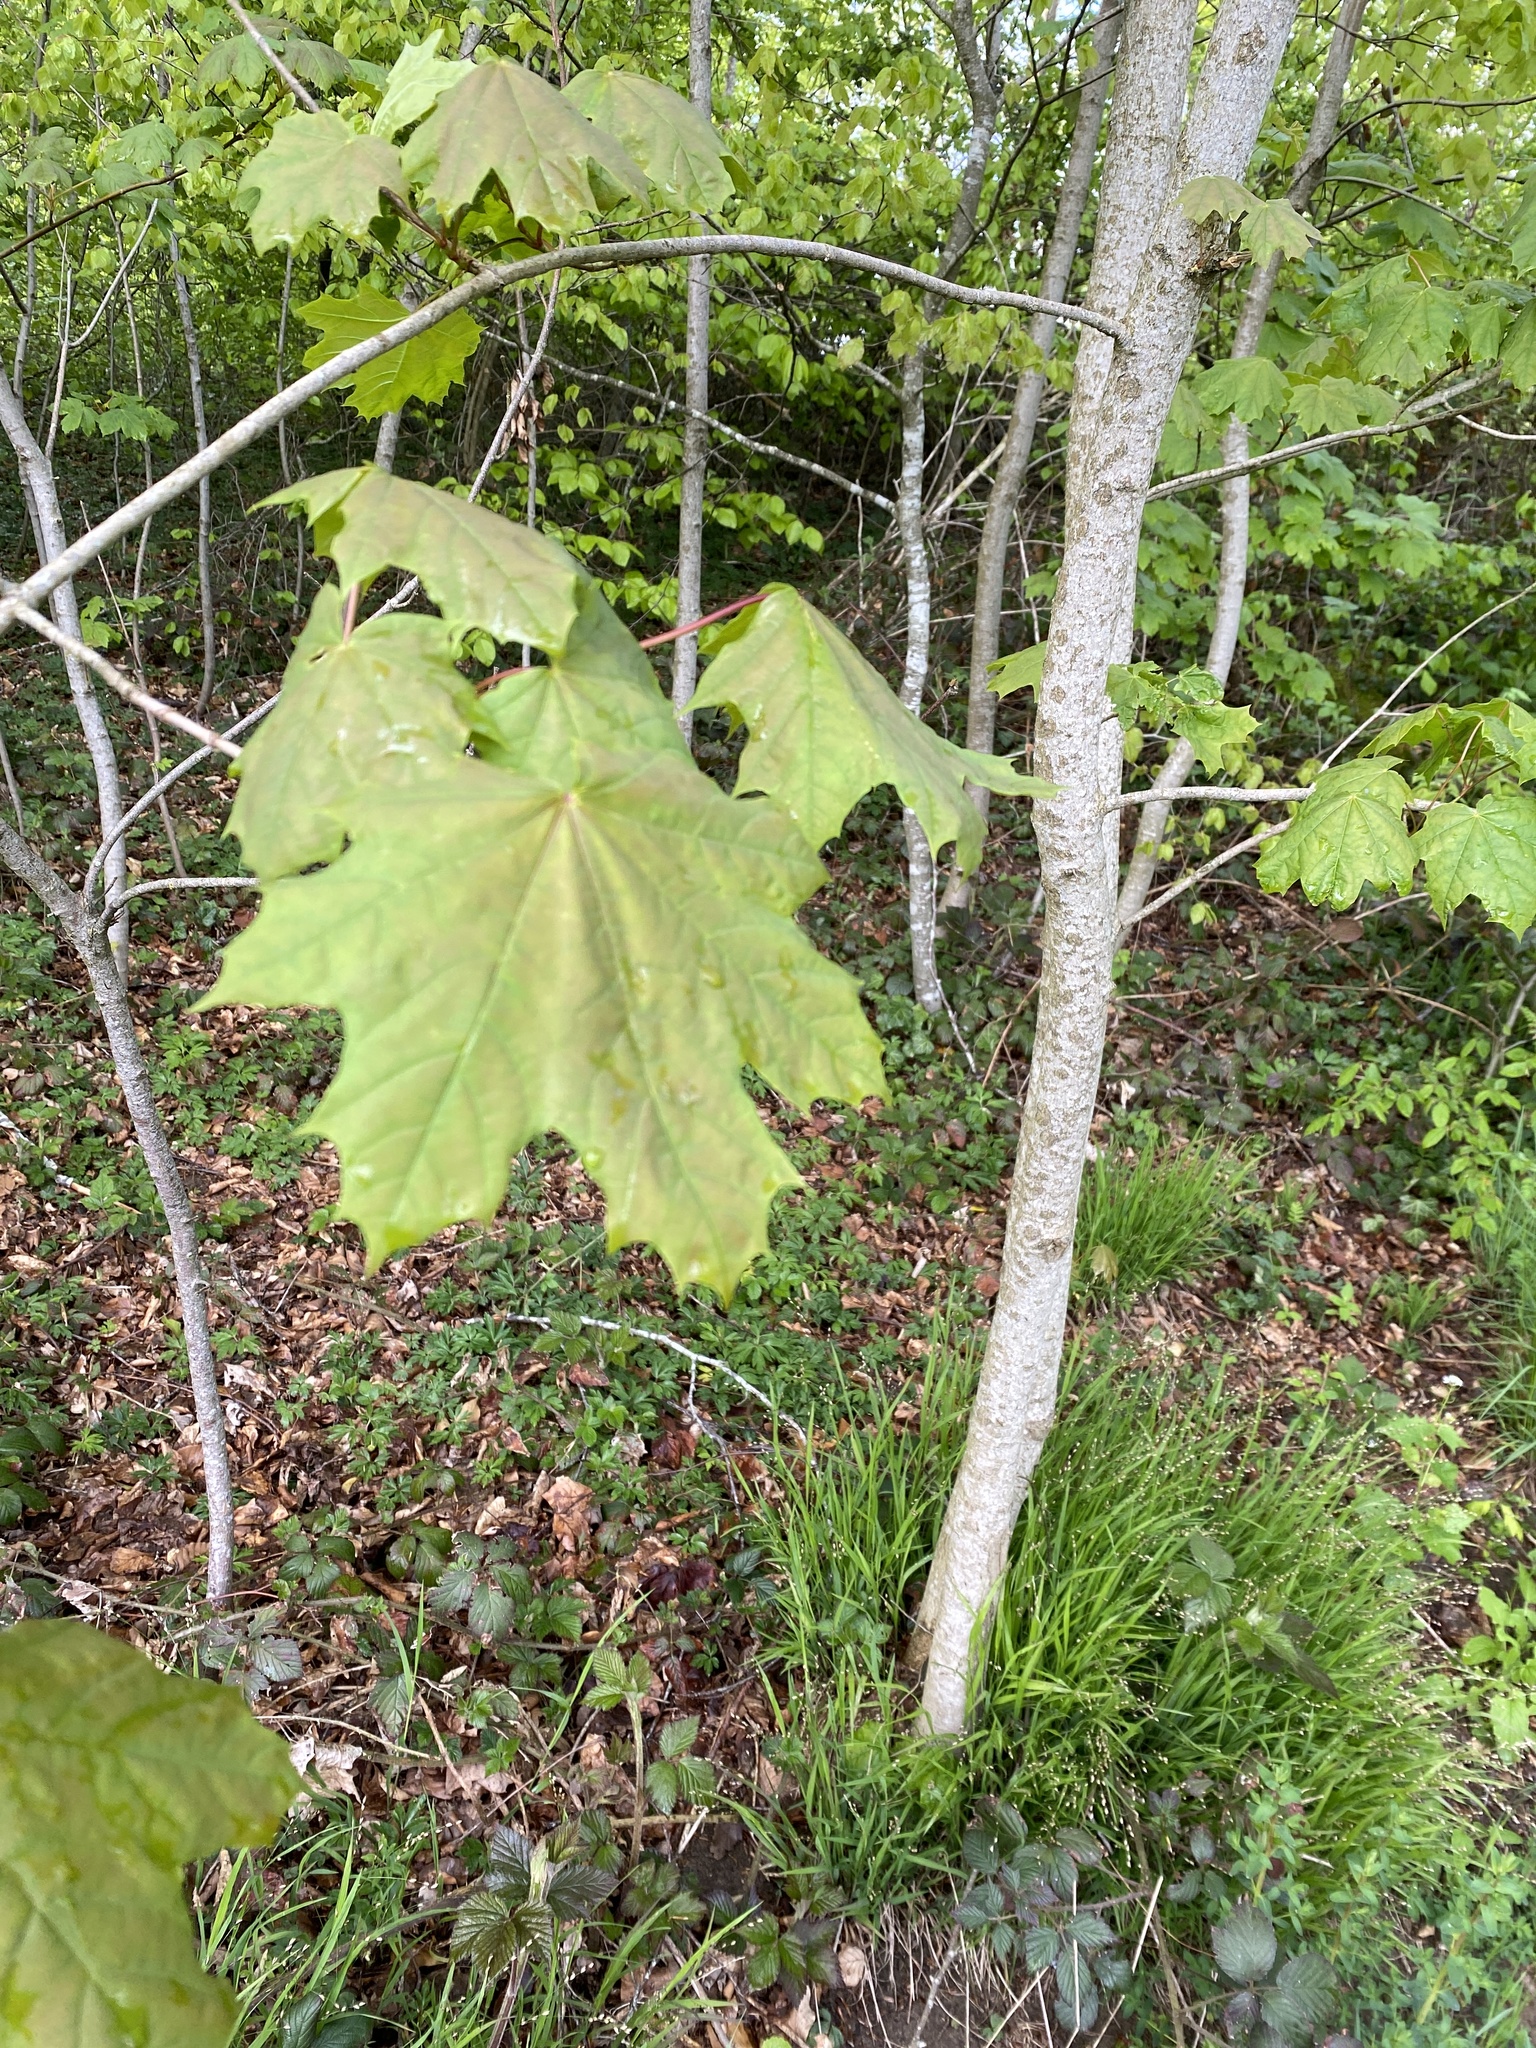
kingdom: Plantae
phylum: Tracheophyta
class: Magnoliopsida
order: Sapindales
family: Sapindaceae
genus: Acer
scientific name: Acer platanoides
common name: Norway maple
